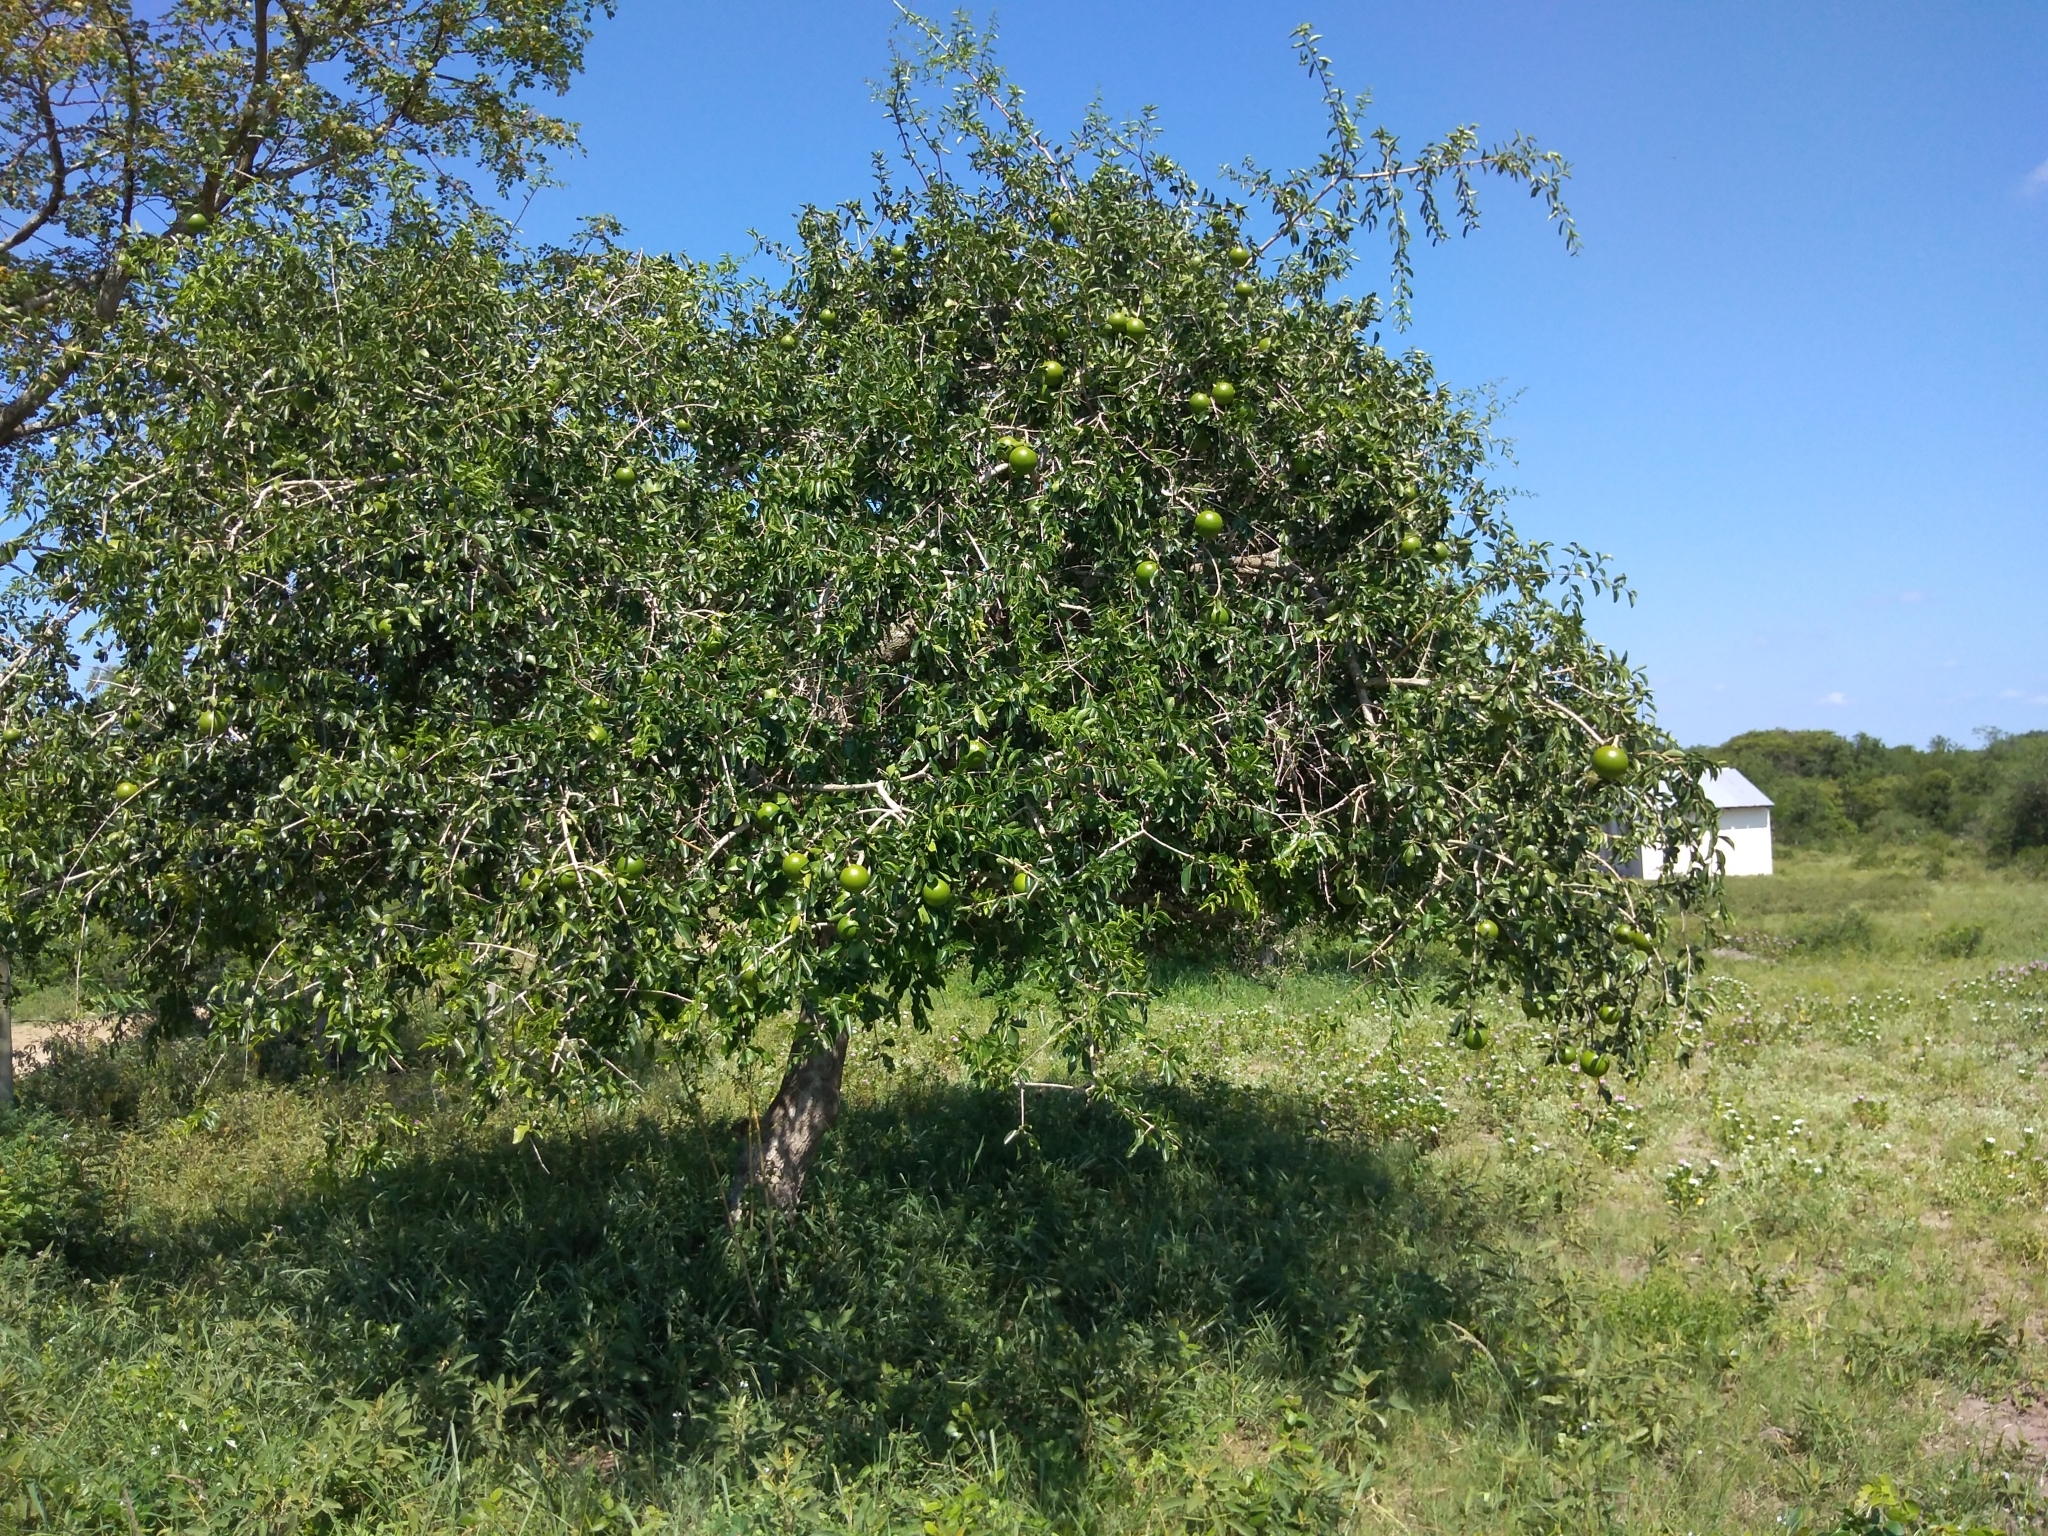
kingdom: Plantae
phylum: Tracheophyta
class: Magnoliopsida
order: Gentianales
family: Loganiaceae
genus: Strychnos
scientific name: Strychnos spinosa
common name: Natal orange
